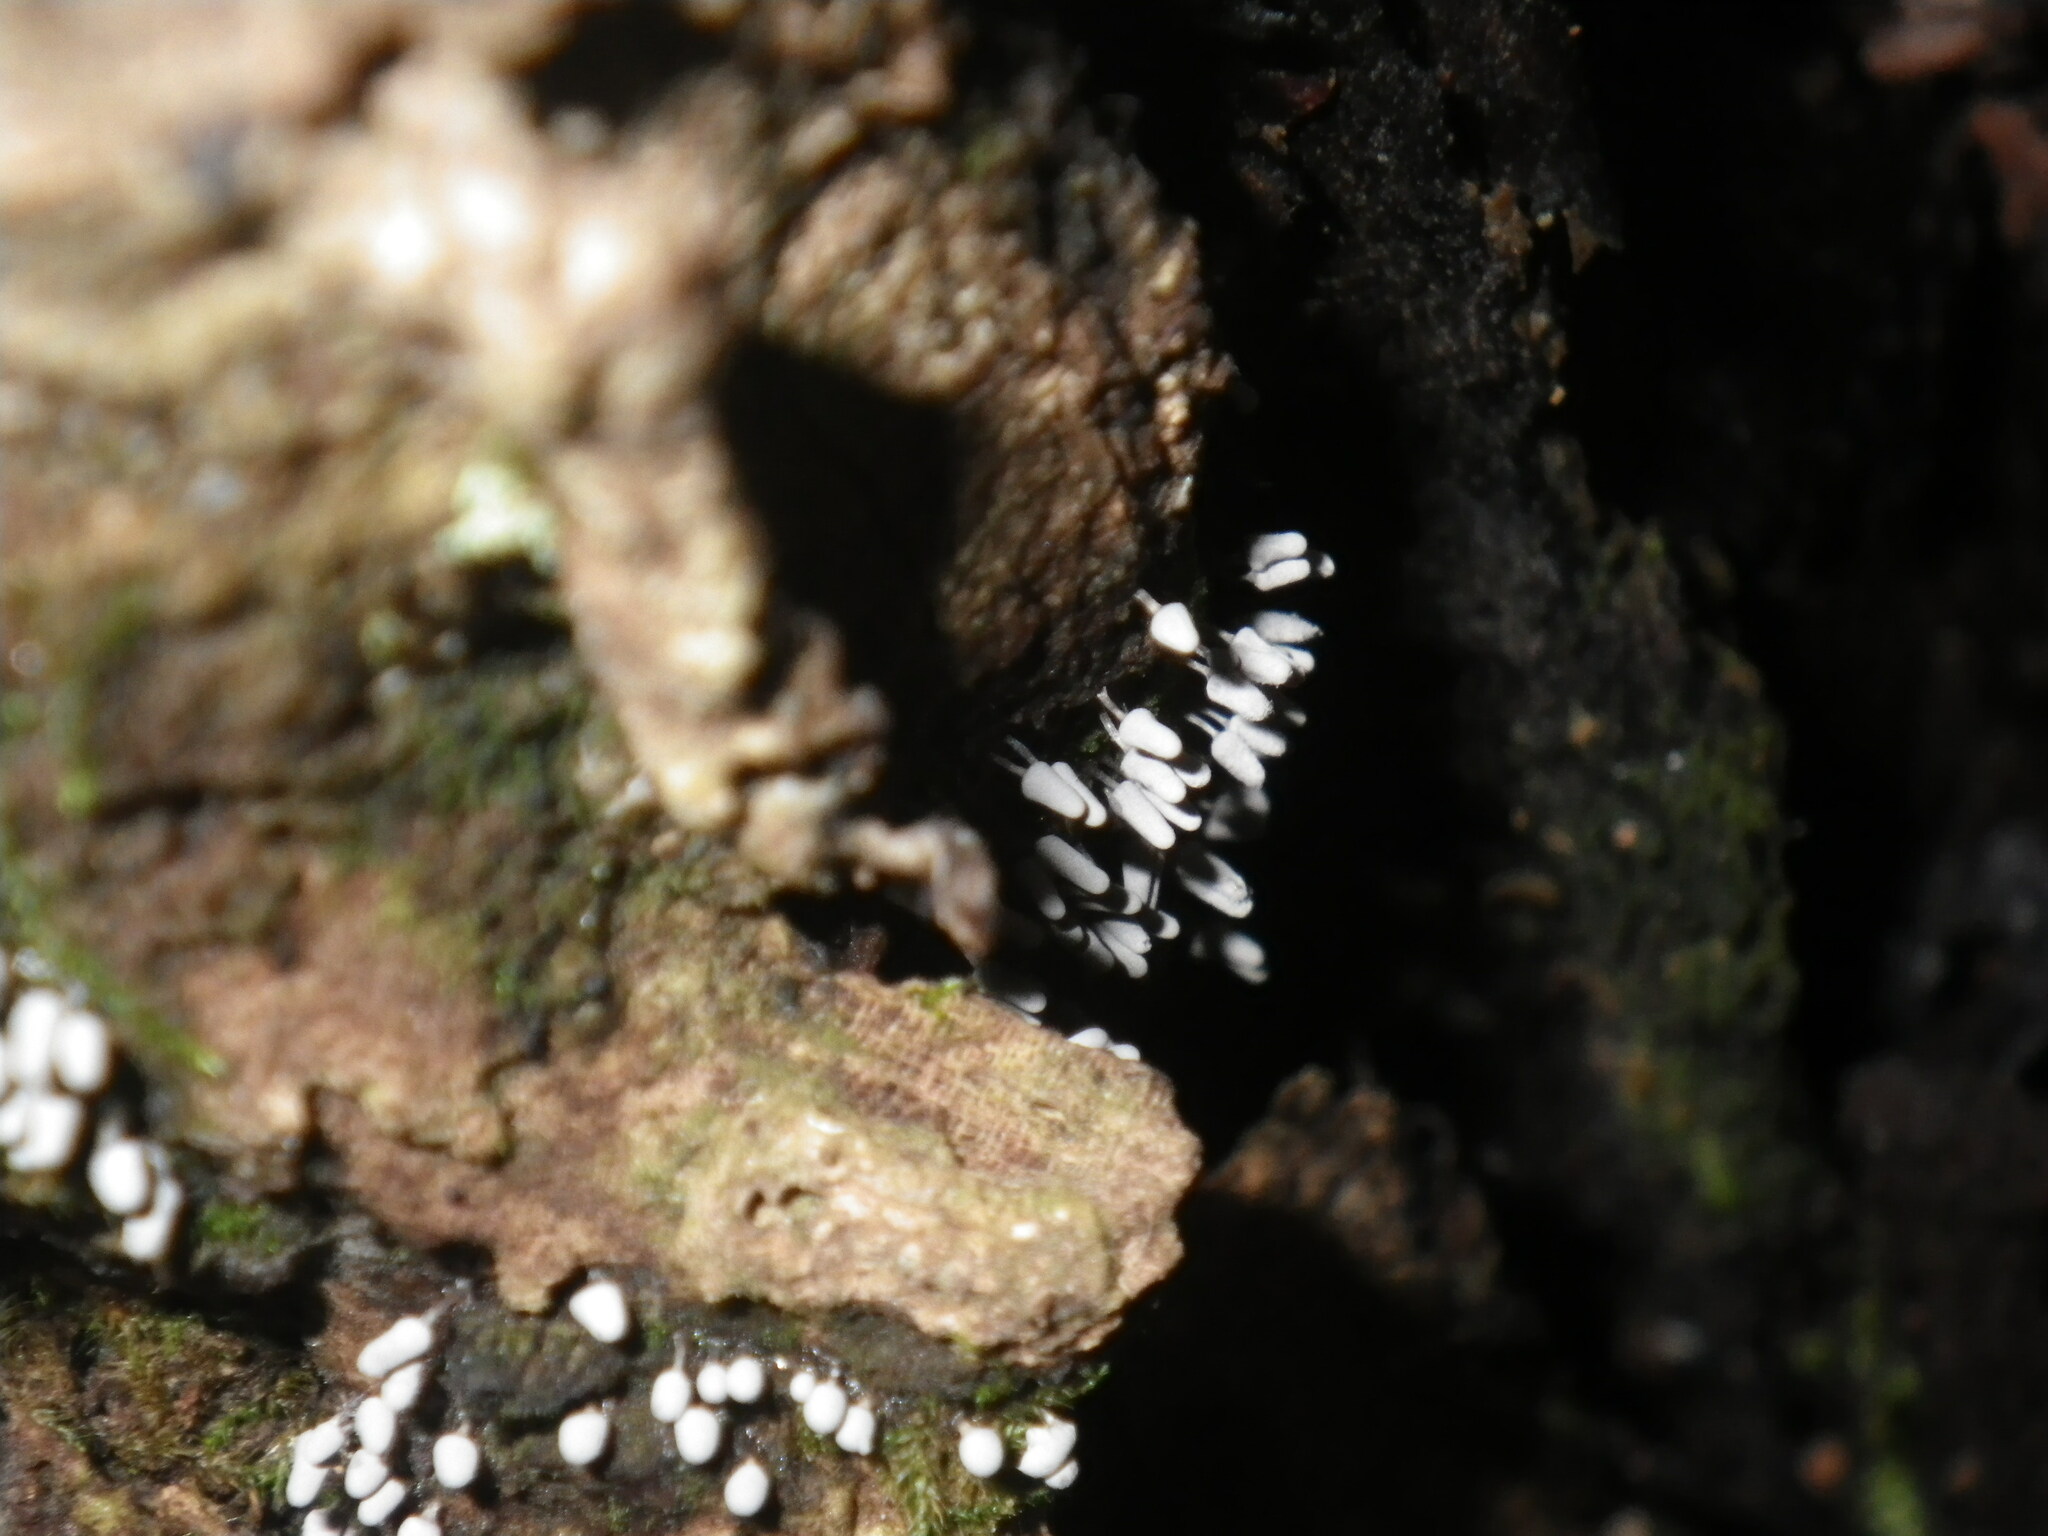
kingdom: Protozoa
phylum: Mycetozoa
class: Myxomycetes
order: Trichiales
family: Arcyriaceae
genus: Arcyria
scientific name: Arcyria cinerea
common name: White carnival candy slime mold
